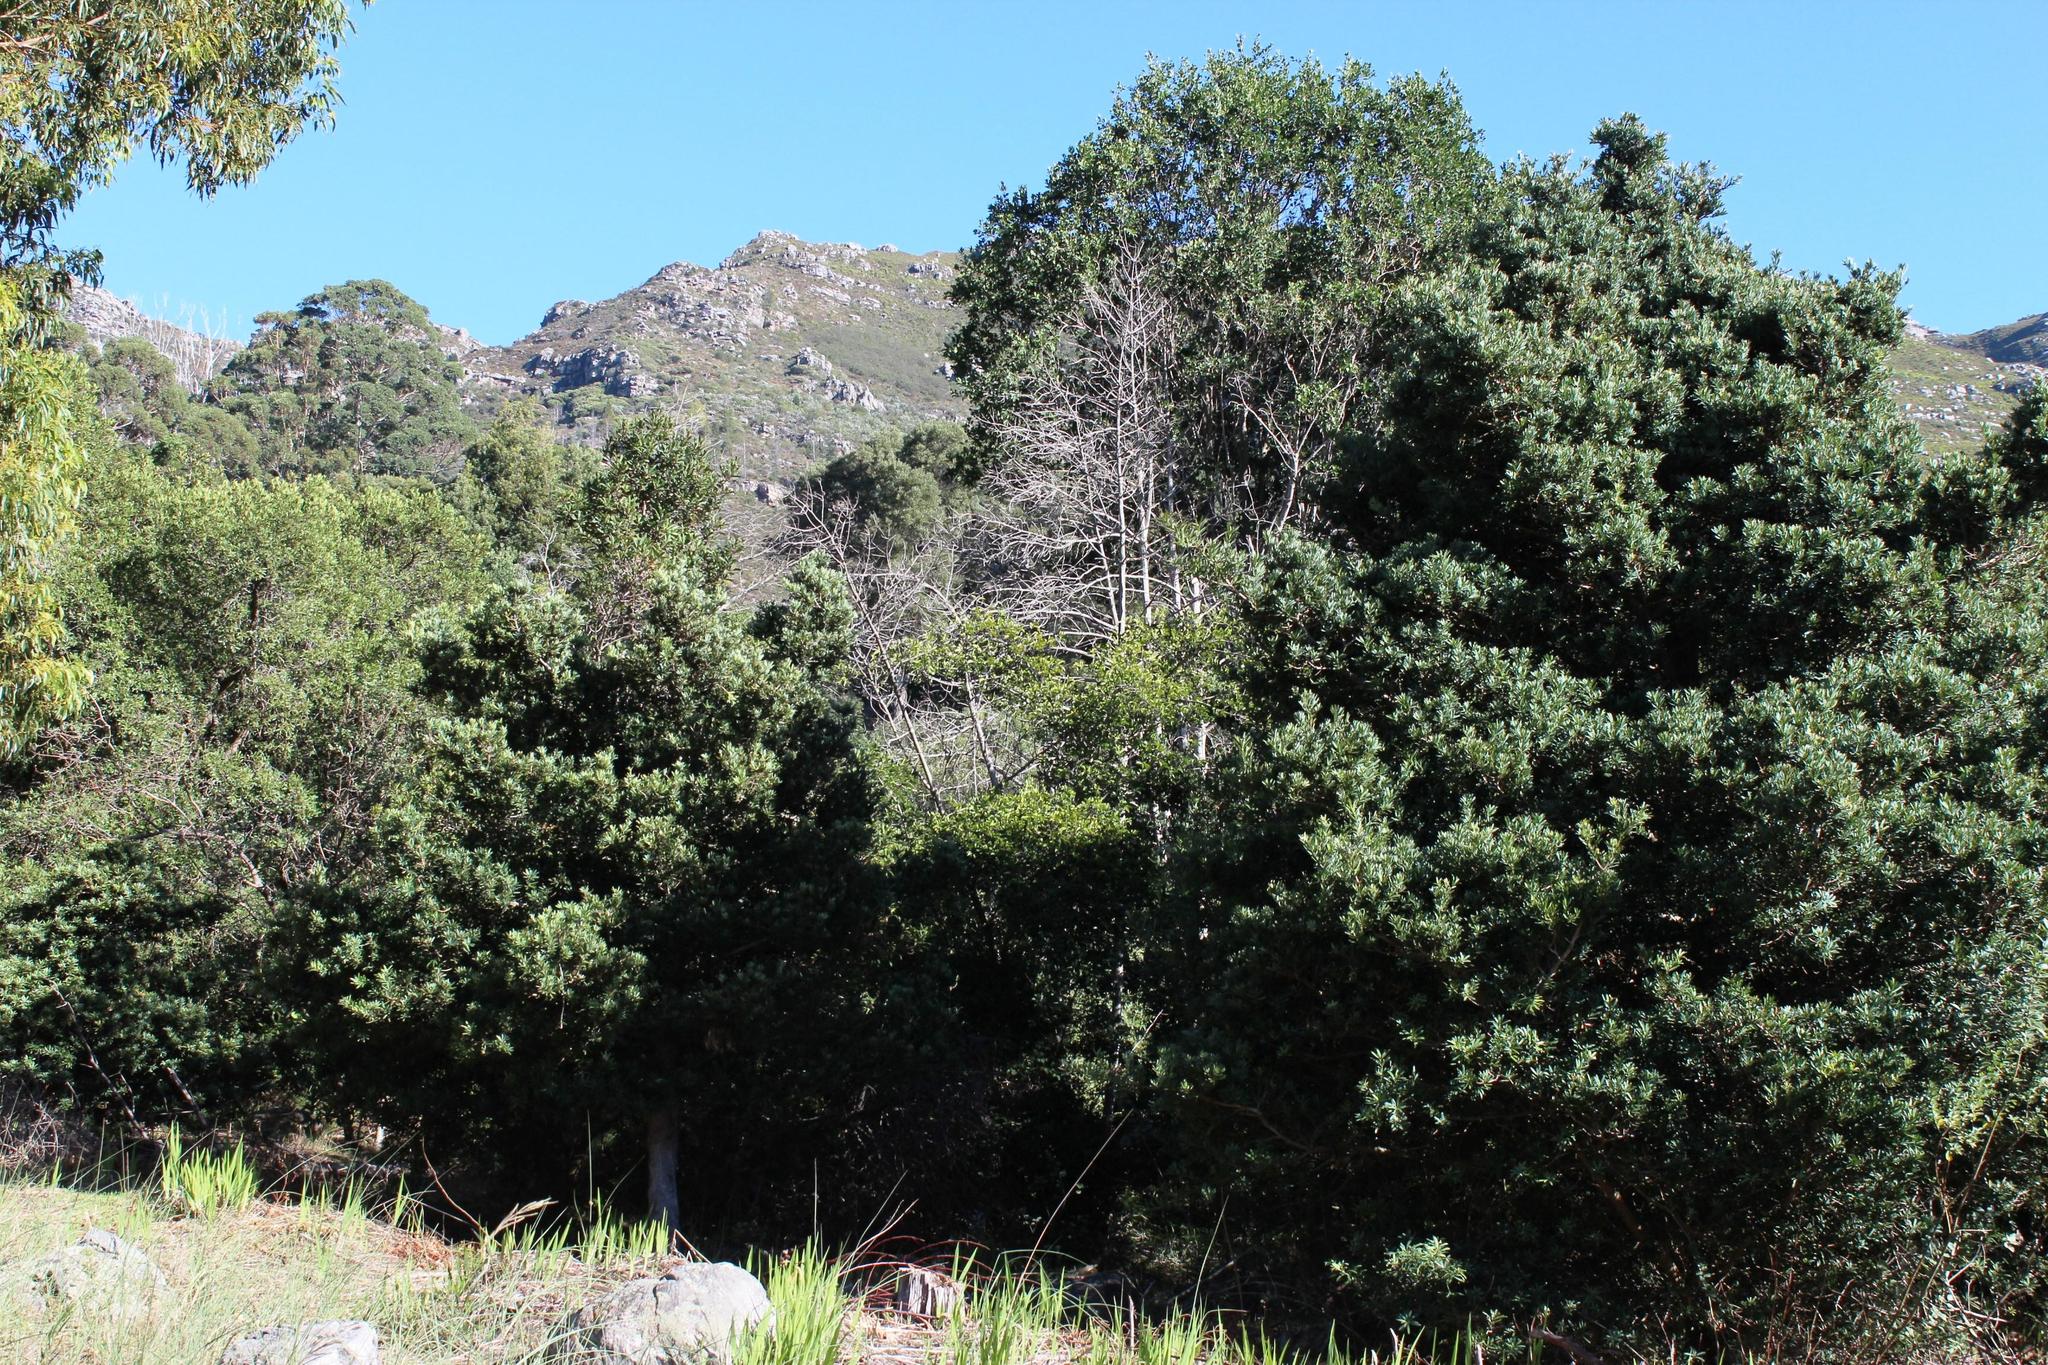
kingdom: Plantae
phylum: Tracheophyta
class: Magnoliopsida
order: Ericales
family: Primulaceae
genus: Myrsine
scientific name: Myrsine melanophloeos
